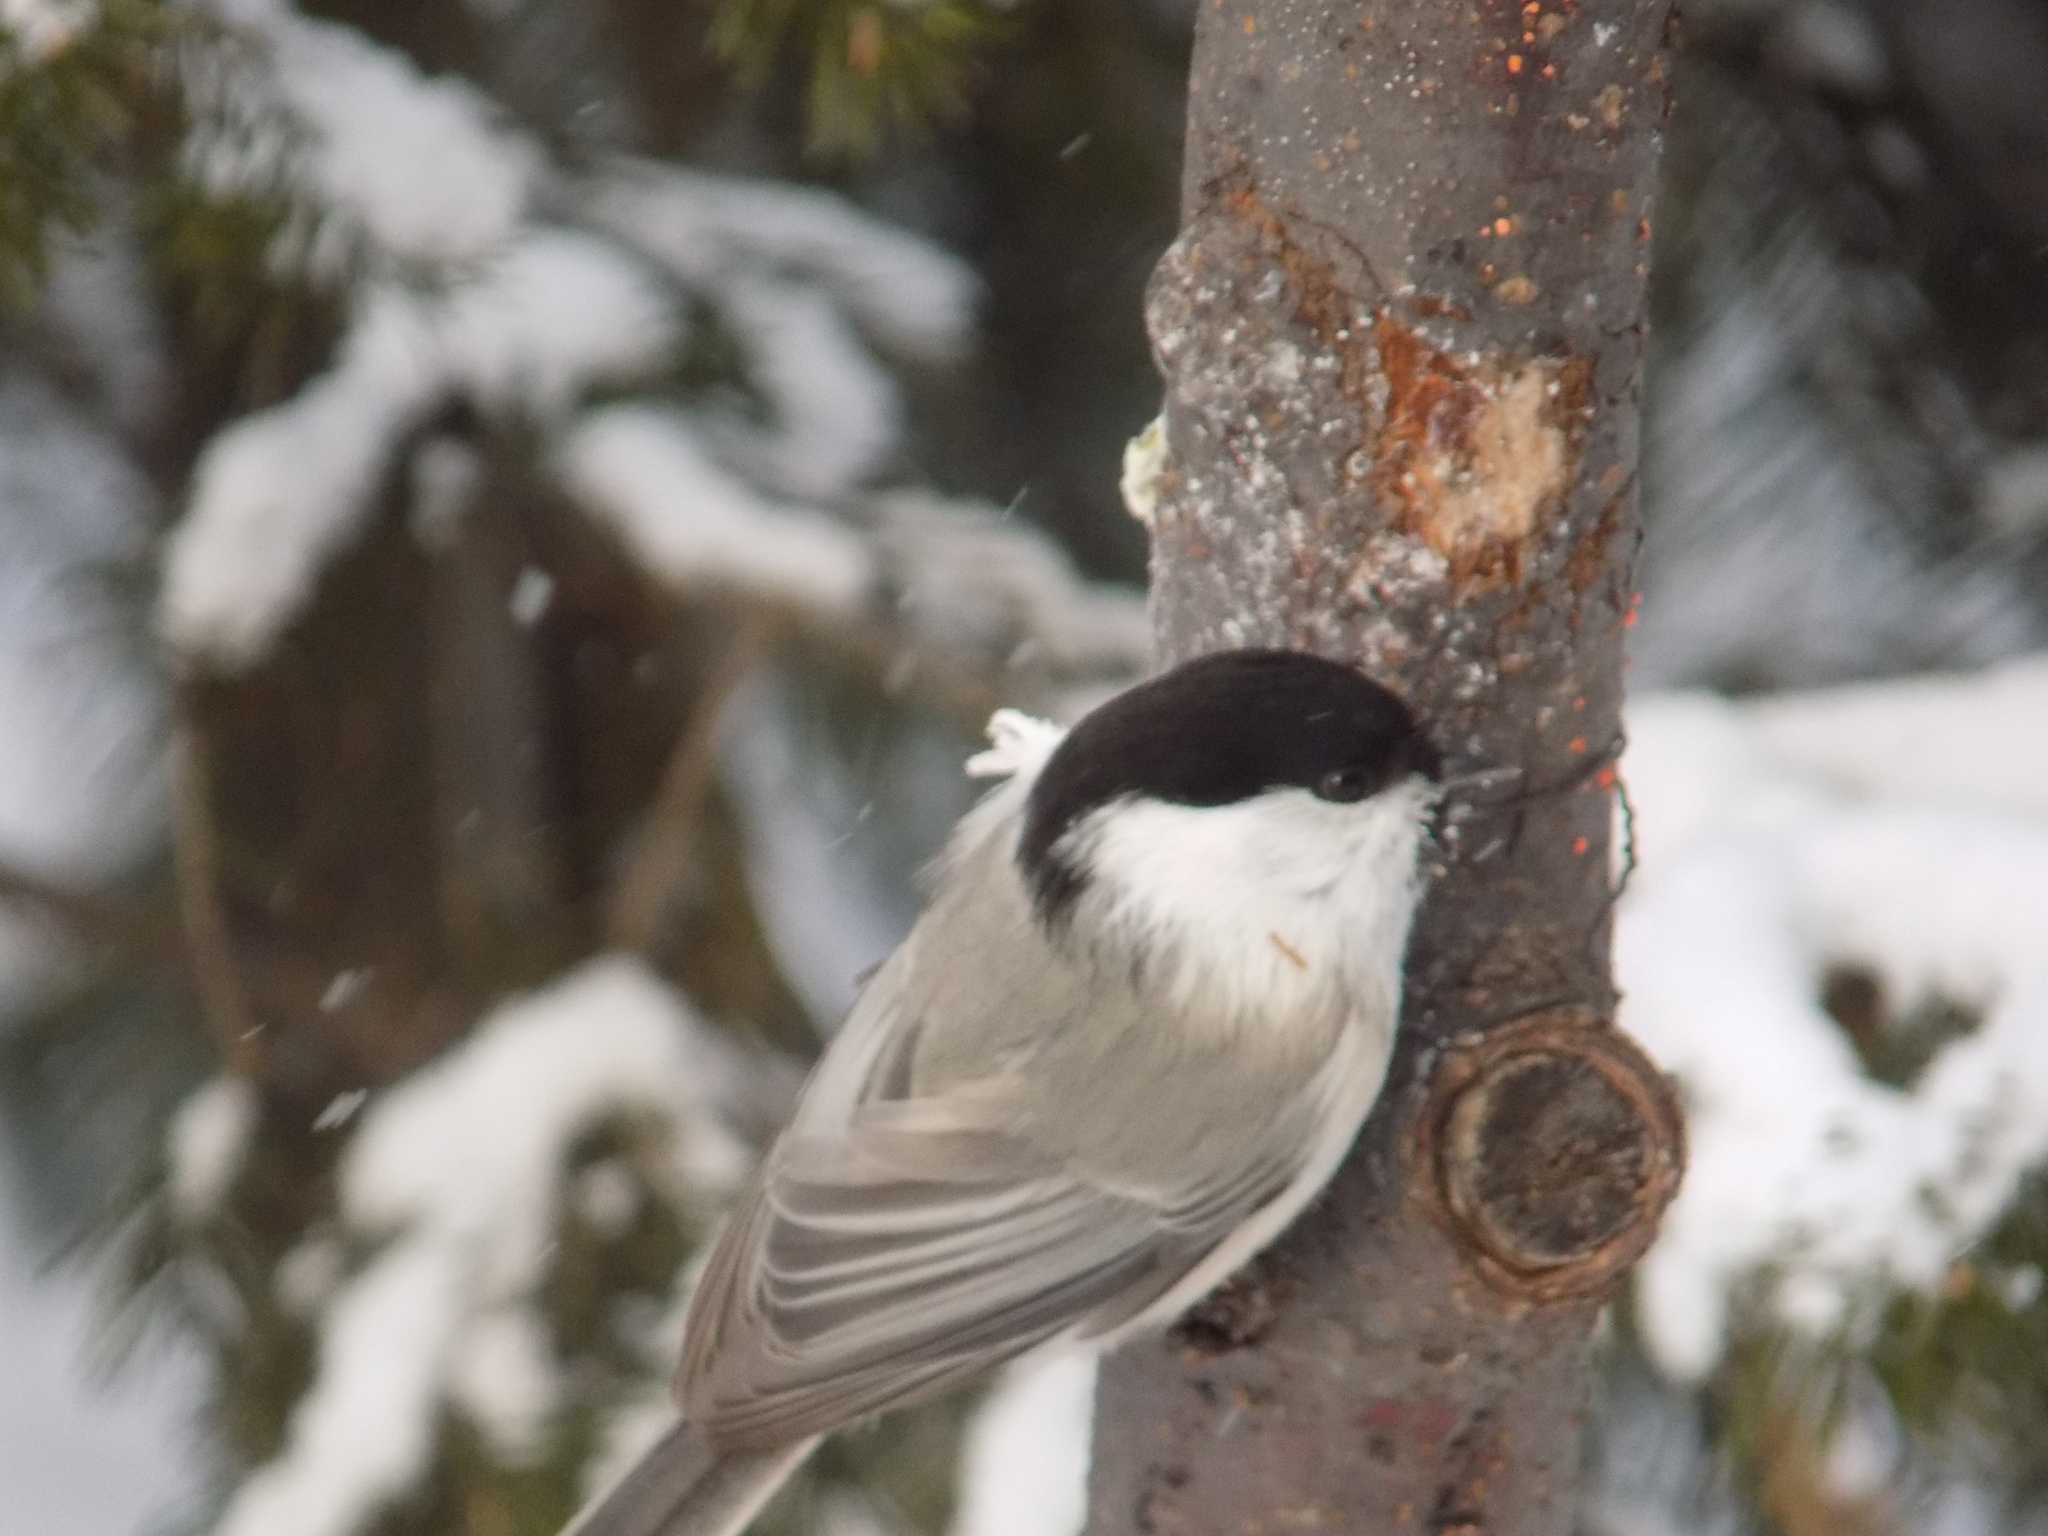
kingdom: Animalia
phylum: Chordata
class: Aves
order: Passeriformes
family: Paridae
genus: Poecile
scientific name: Poecile montanus
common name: Willow tit
